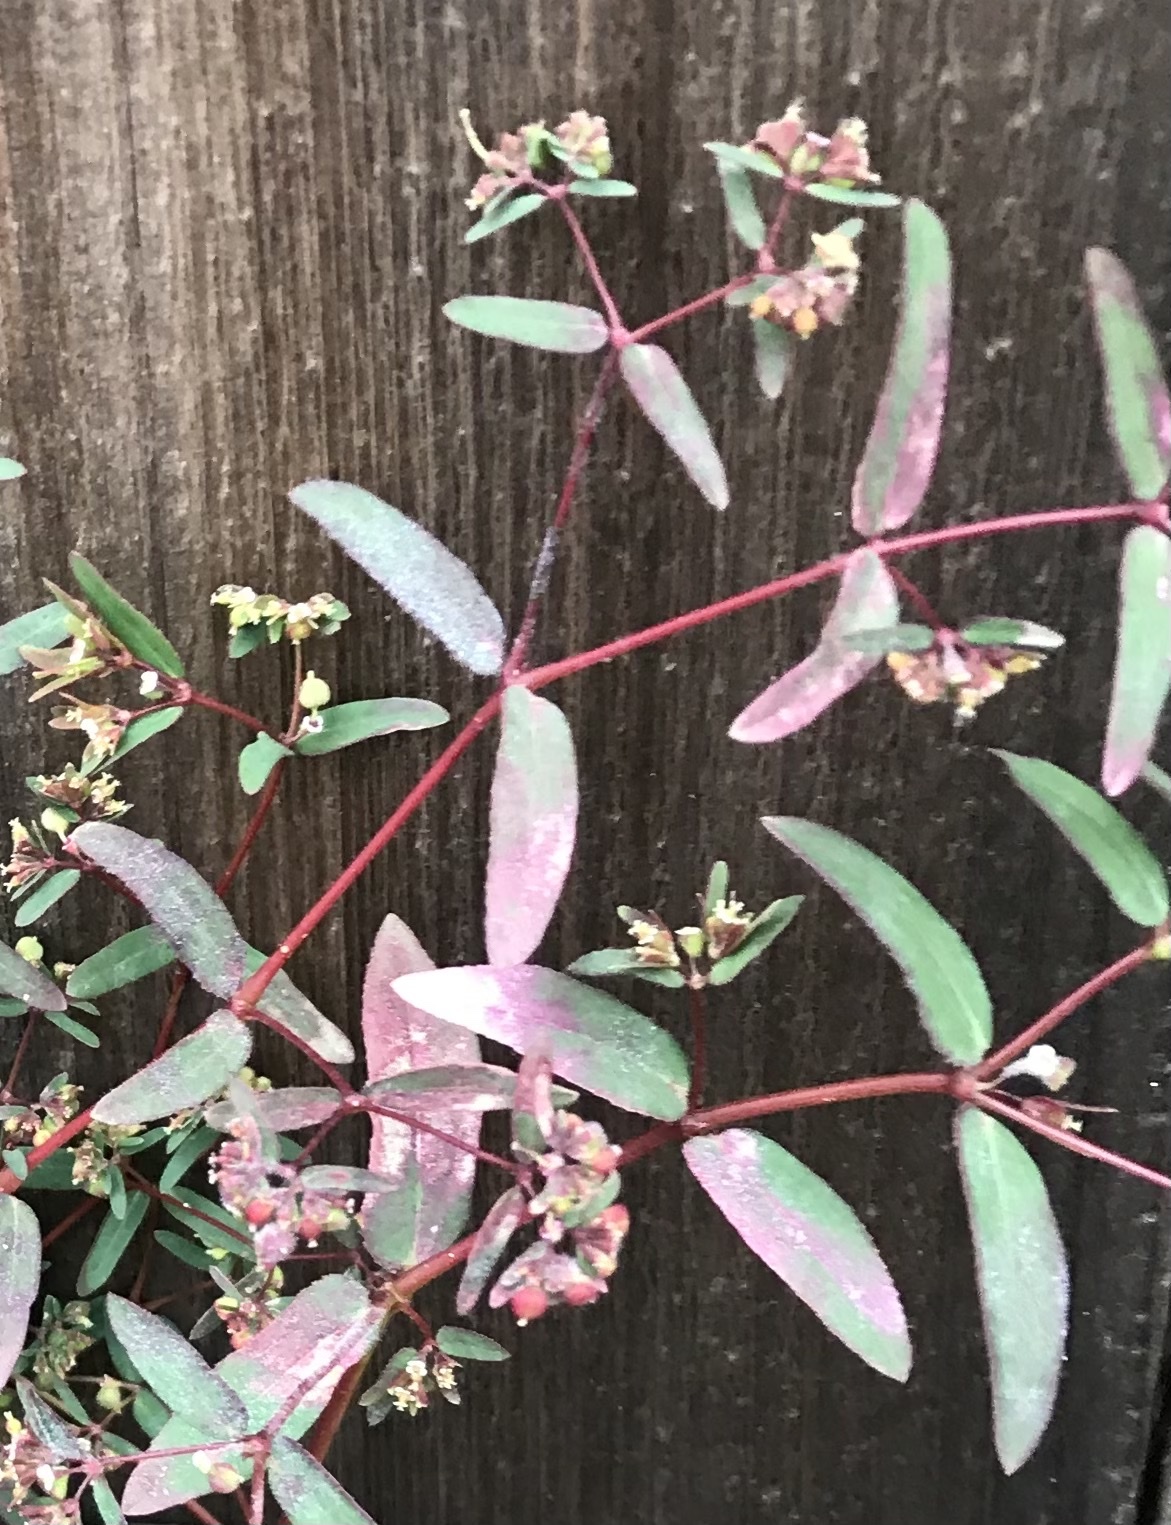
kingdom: Plantae
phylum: Tracheophyta
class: Magnoliopsida
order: Malpighiales
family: Euphorbiaceae
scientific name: Euphorbiaceae
